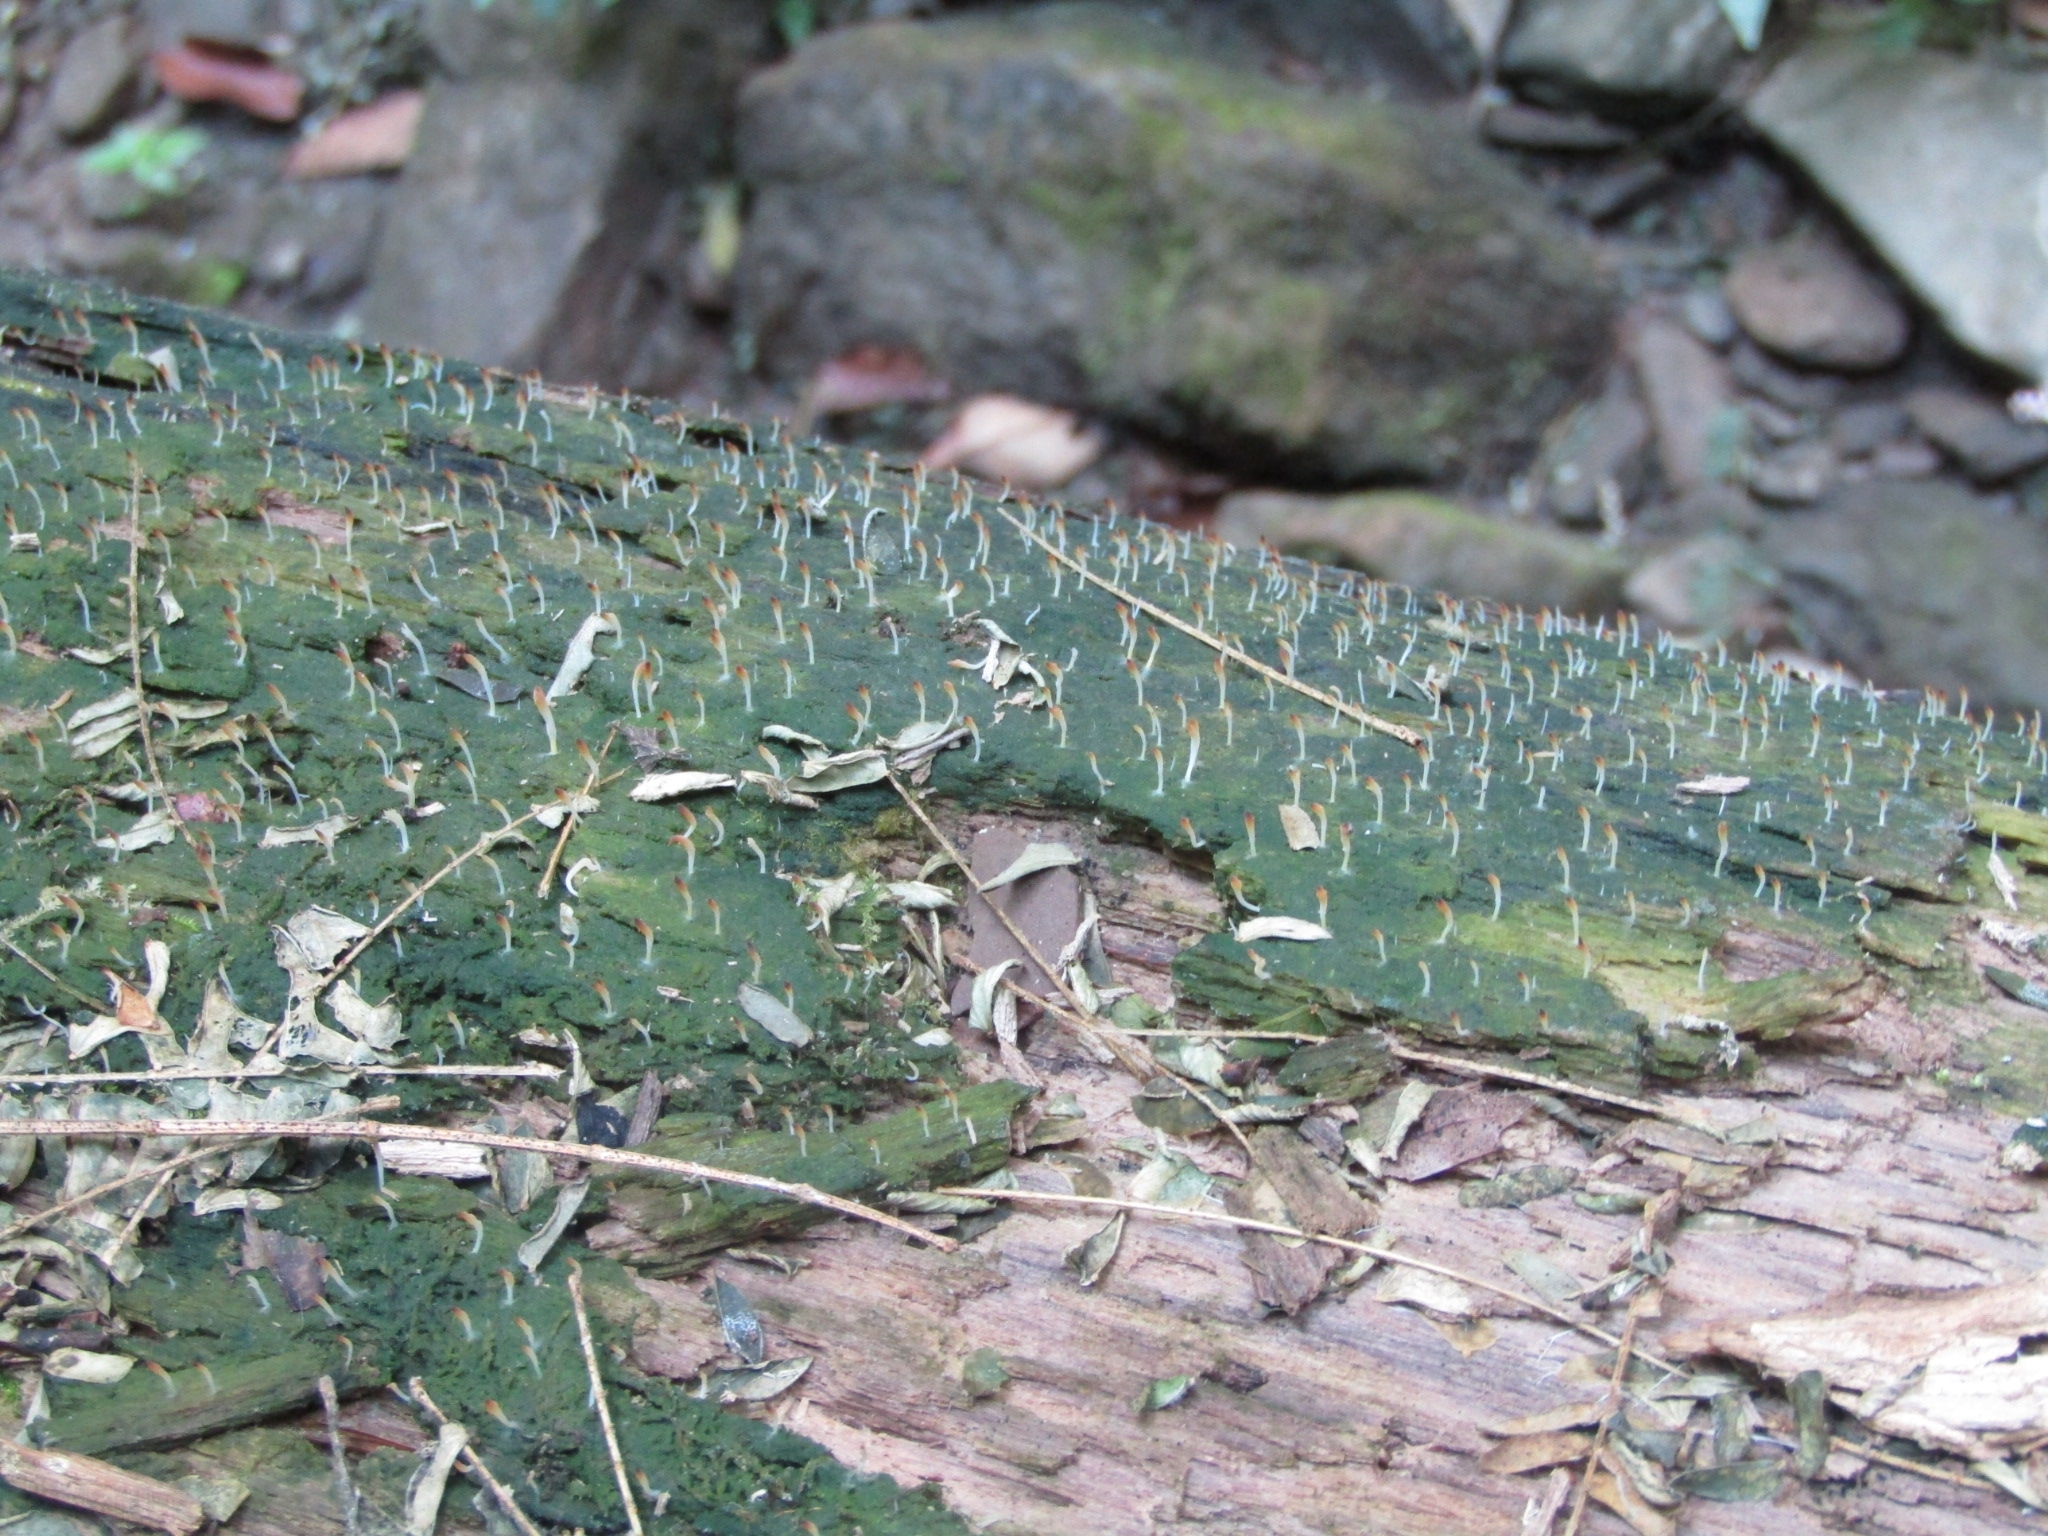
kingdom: Fungi
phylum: Basidiomycota
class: Agaricomycetes
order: Cantharellales
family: Hydnaceae
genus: Multiclavula
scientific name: Multiclavula mucida
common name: White green-algae coral
